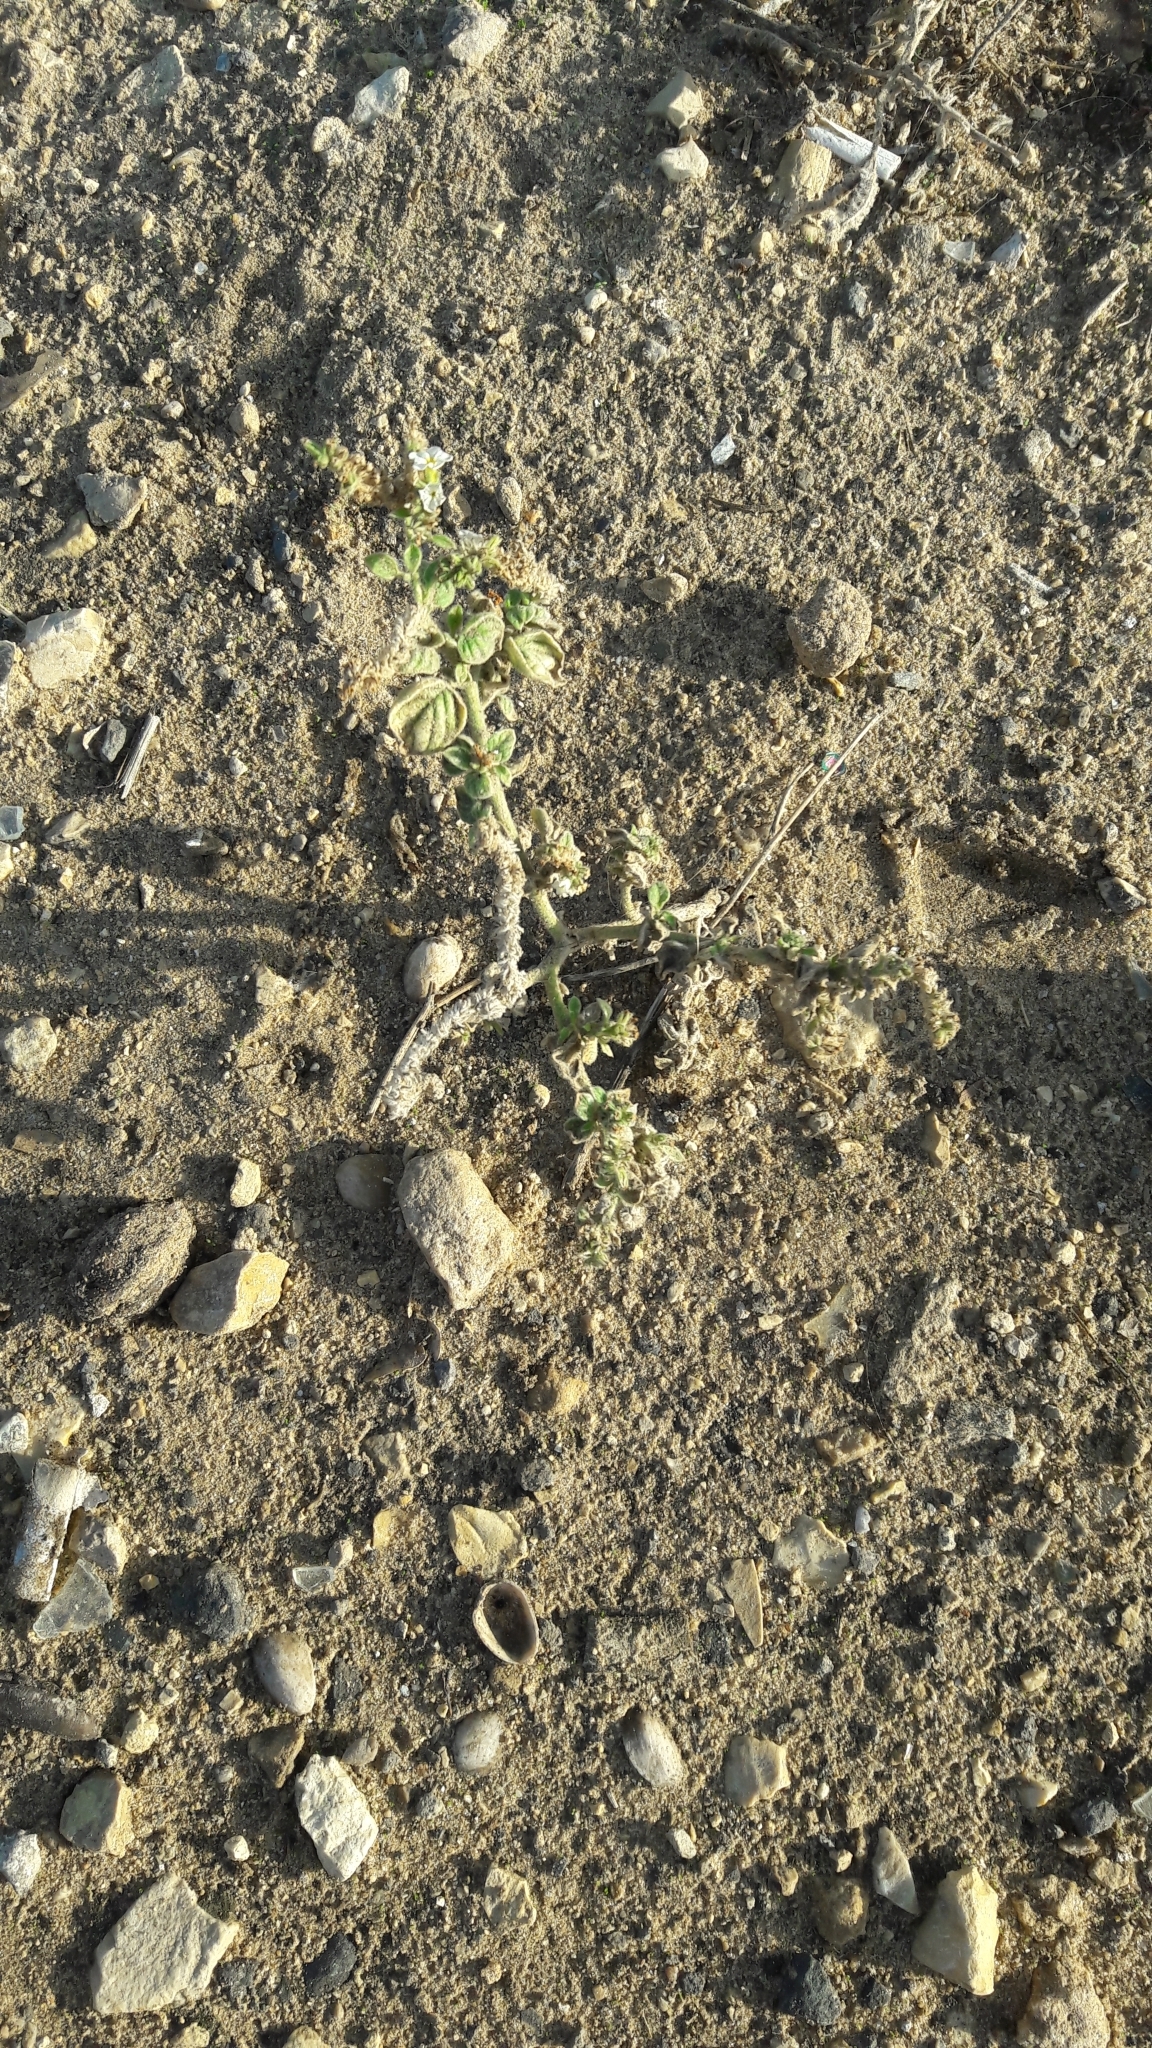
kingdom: Plantae
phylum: Tracheophyta
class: Magnoliopsida
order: Boraginales
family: Heliotropiaceae
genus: Heliotropium
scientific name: Heliotropium europaeum
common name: European heliotrope
